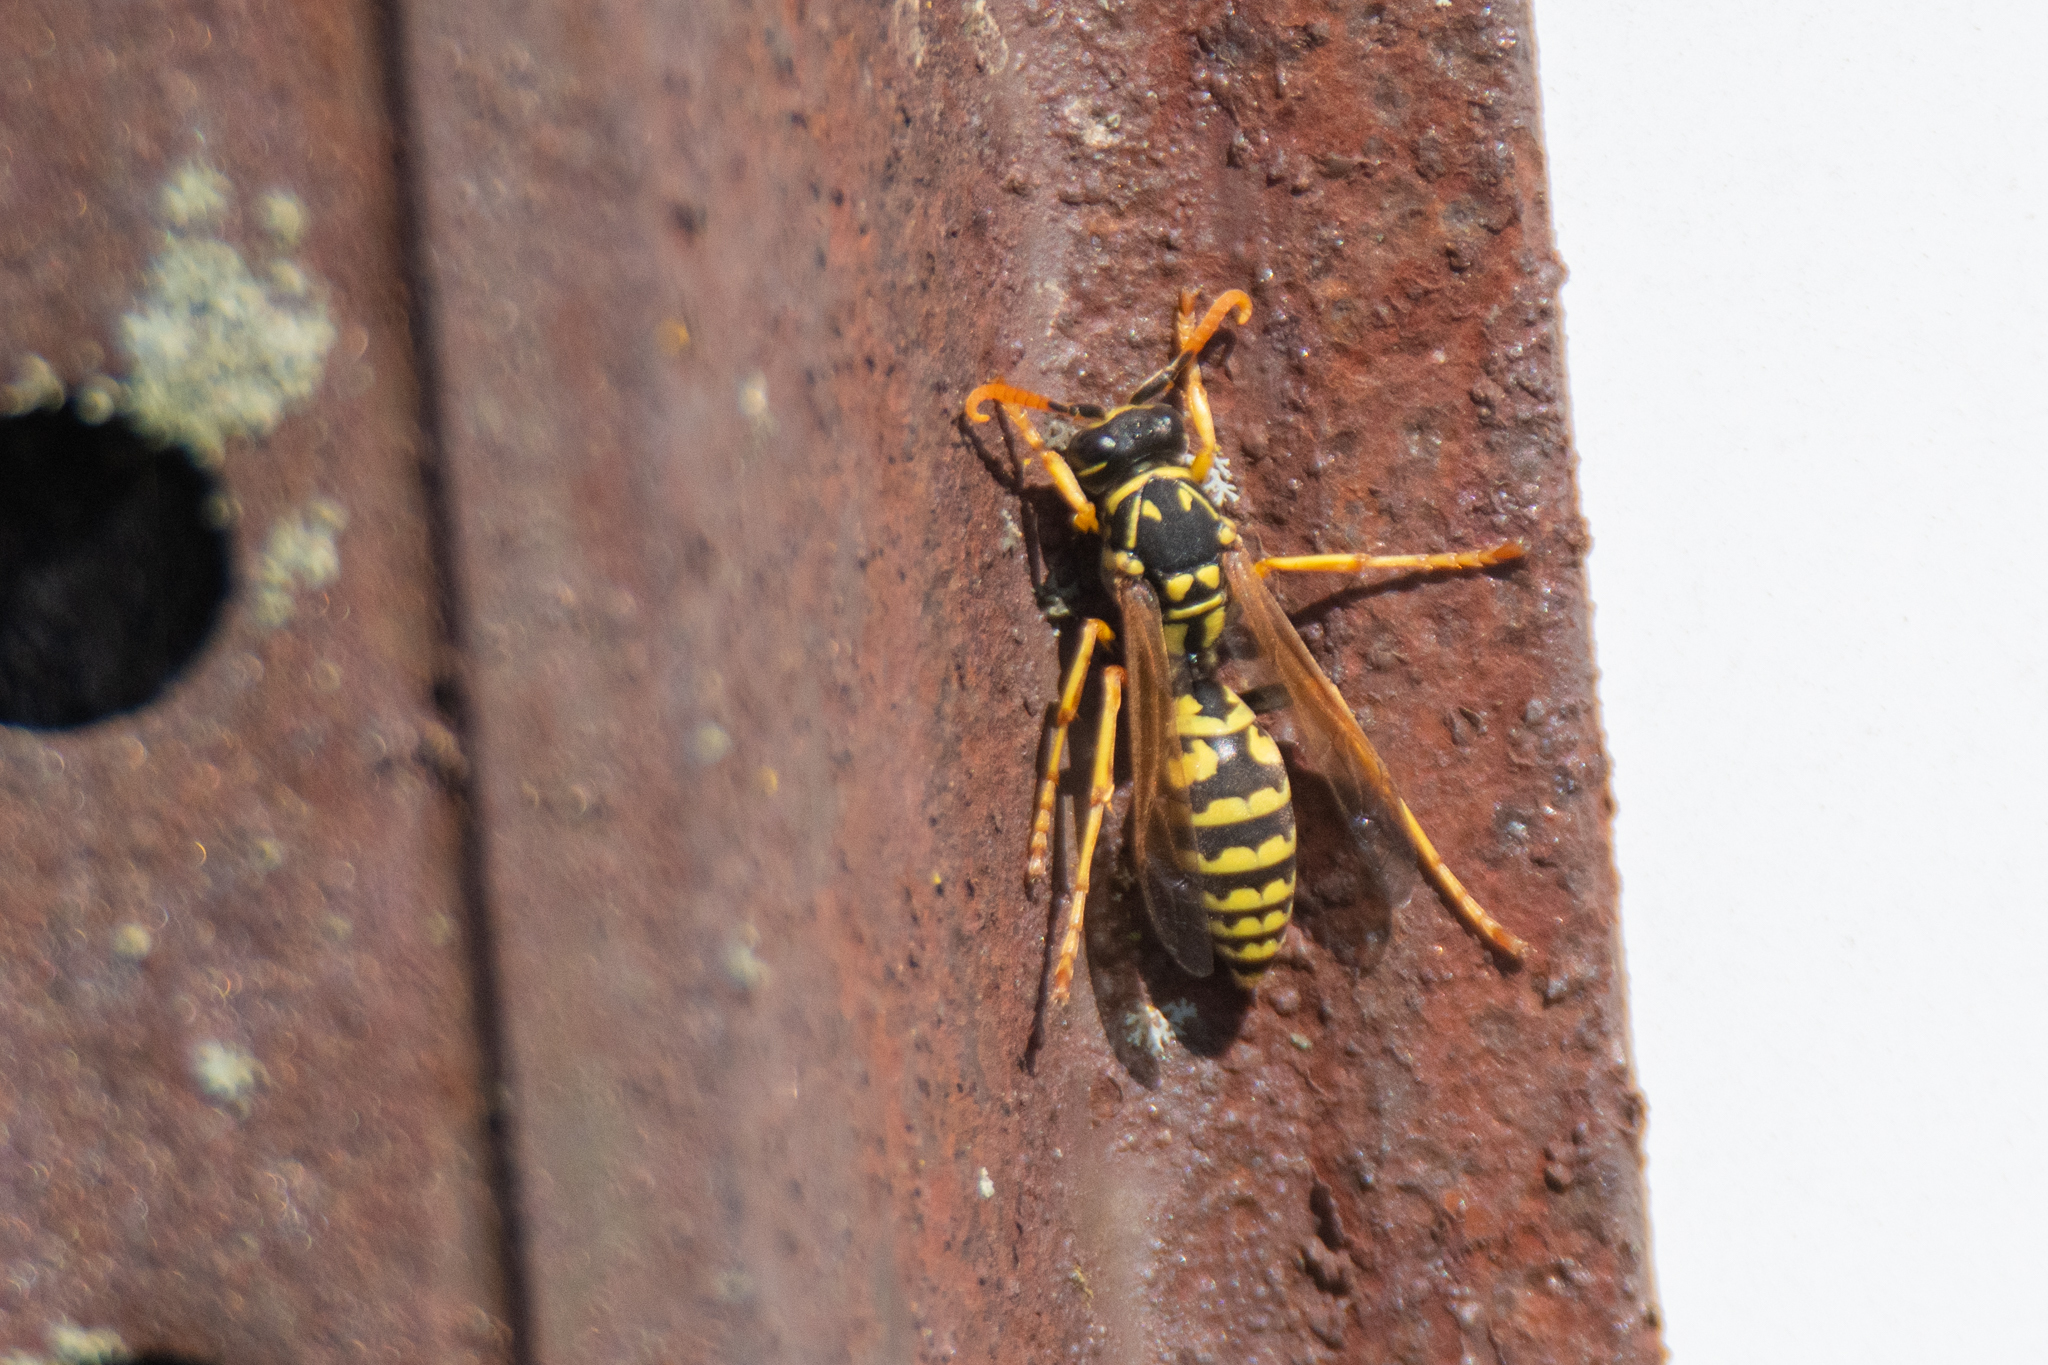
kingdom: Animalia
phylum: Arthropoda
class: Insecta
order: Hymenoptera
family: Eumenidae
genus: Polistes
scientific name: Polistes dominula
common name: Paper wasp
